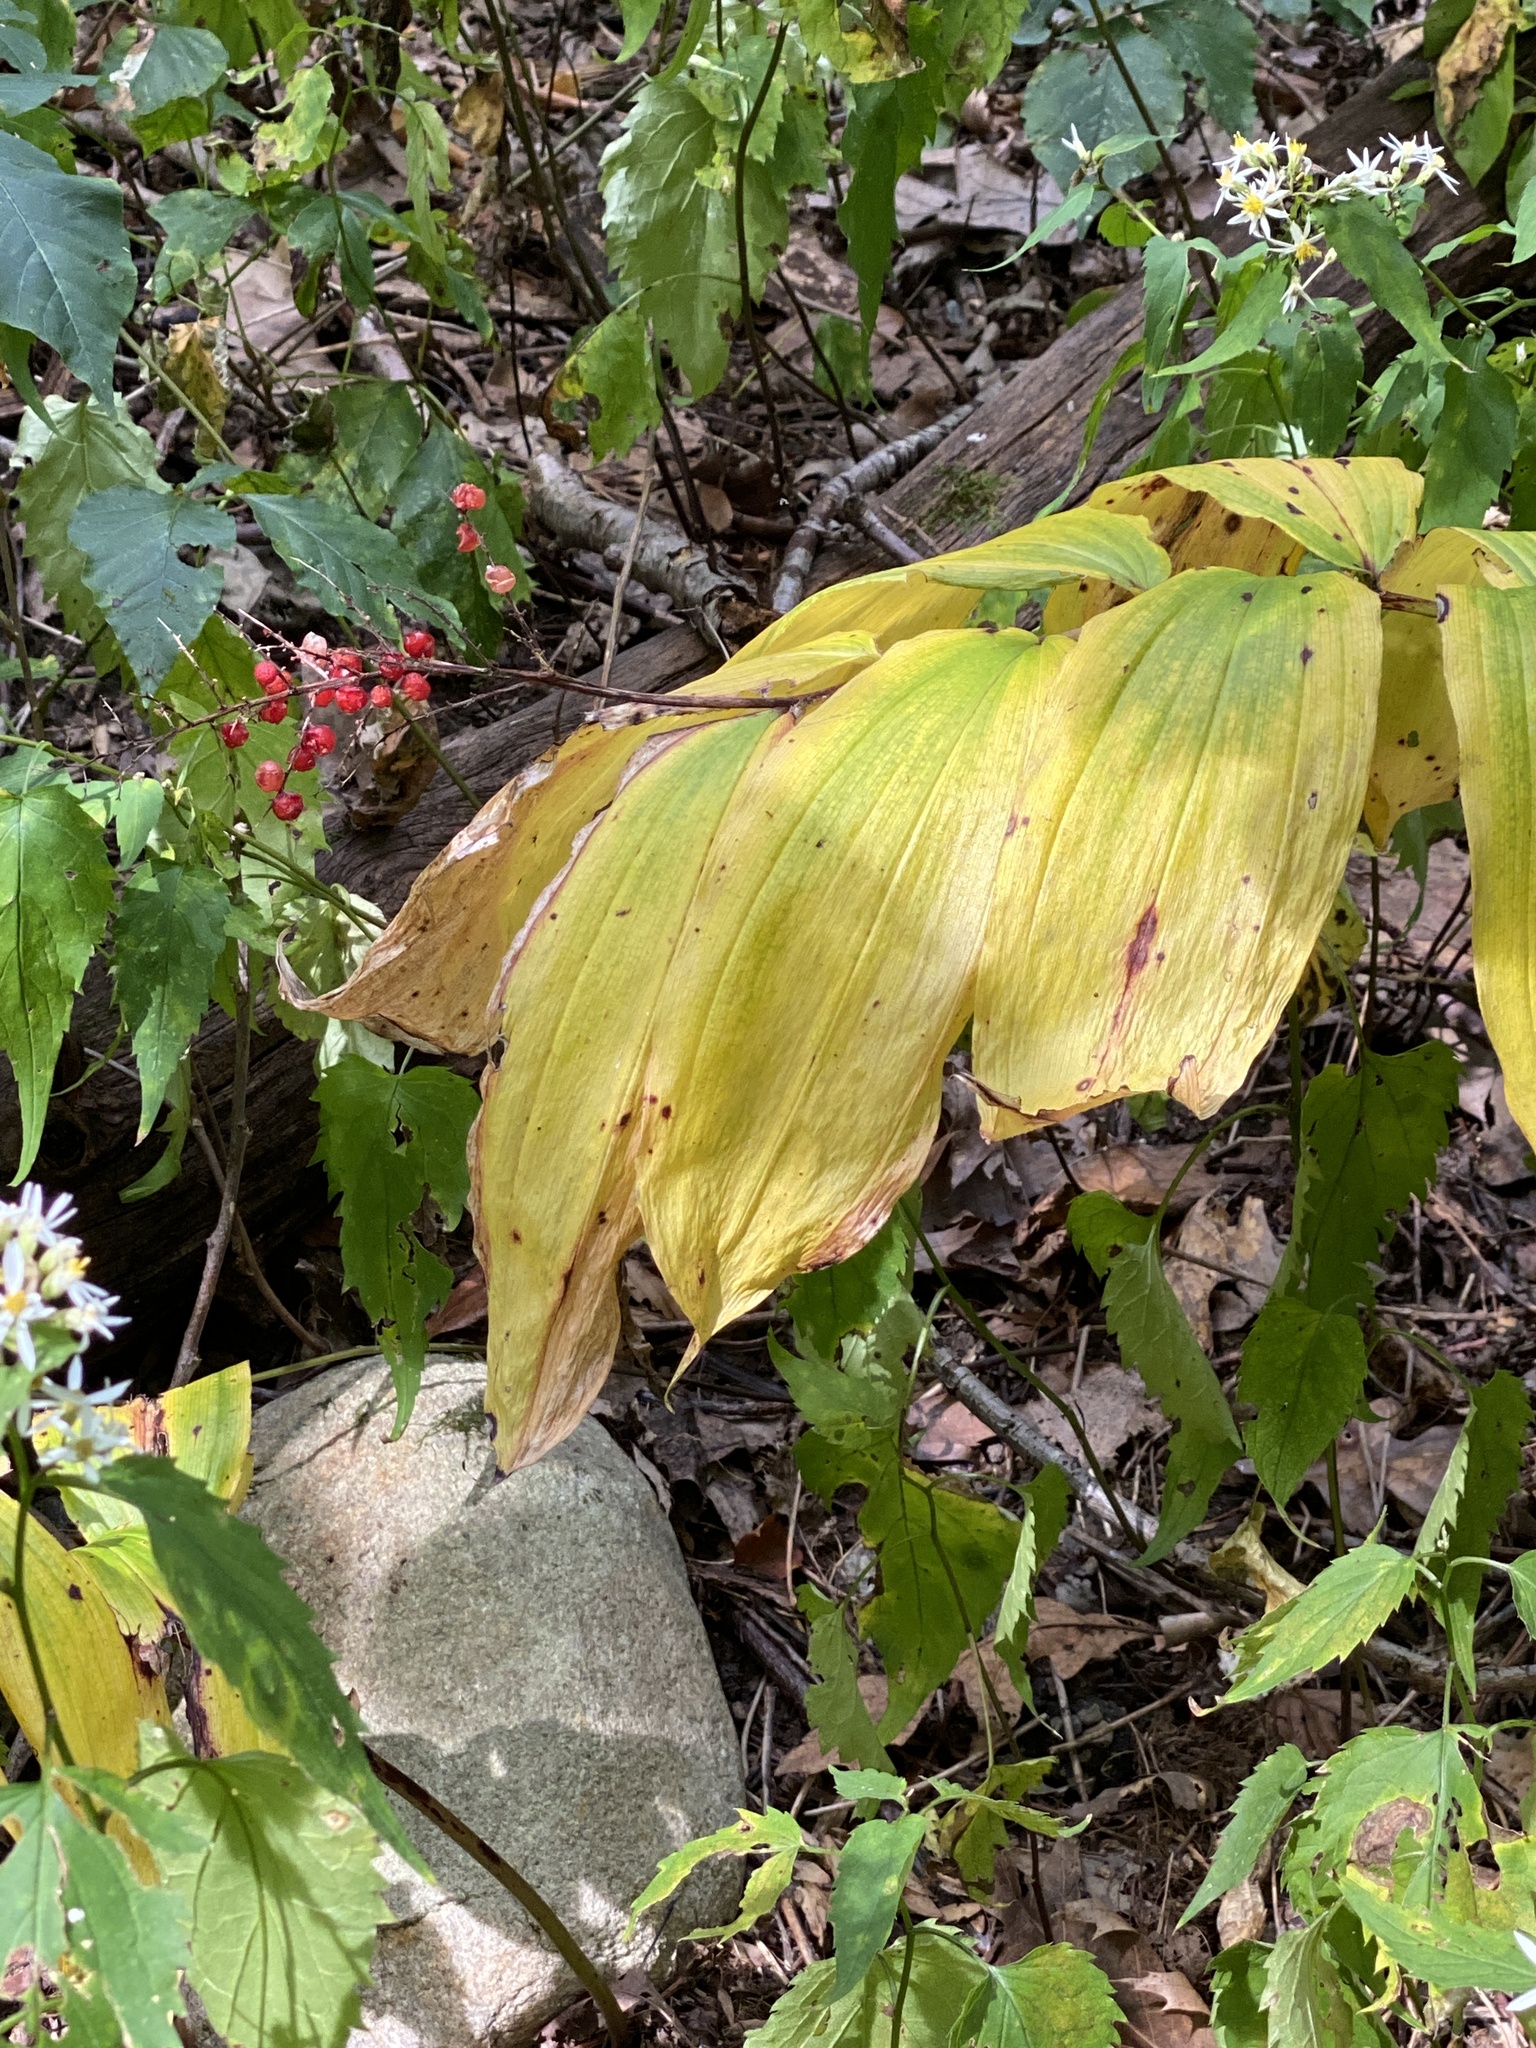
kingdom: Plantae
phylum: Tracheophyta
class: Liliopsida
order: Asparagales
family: Asparagaceae
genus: Maianthemum
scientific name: Maianthemum racemosum
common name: False spikenard
